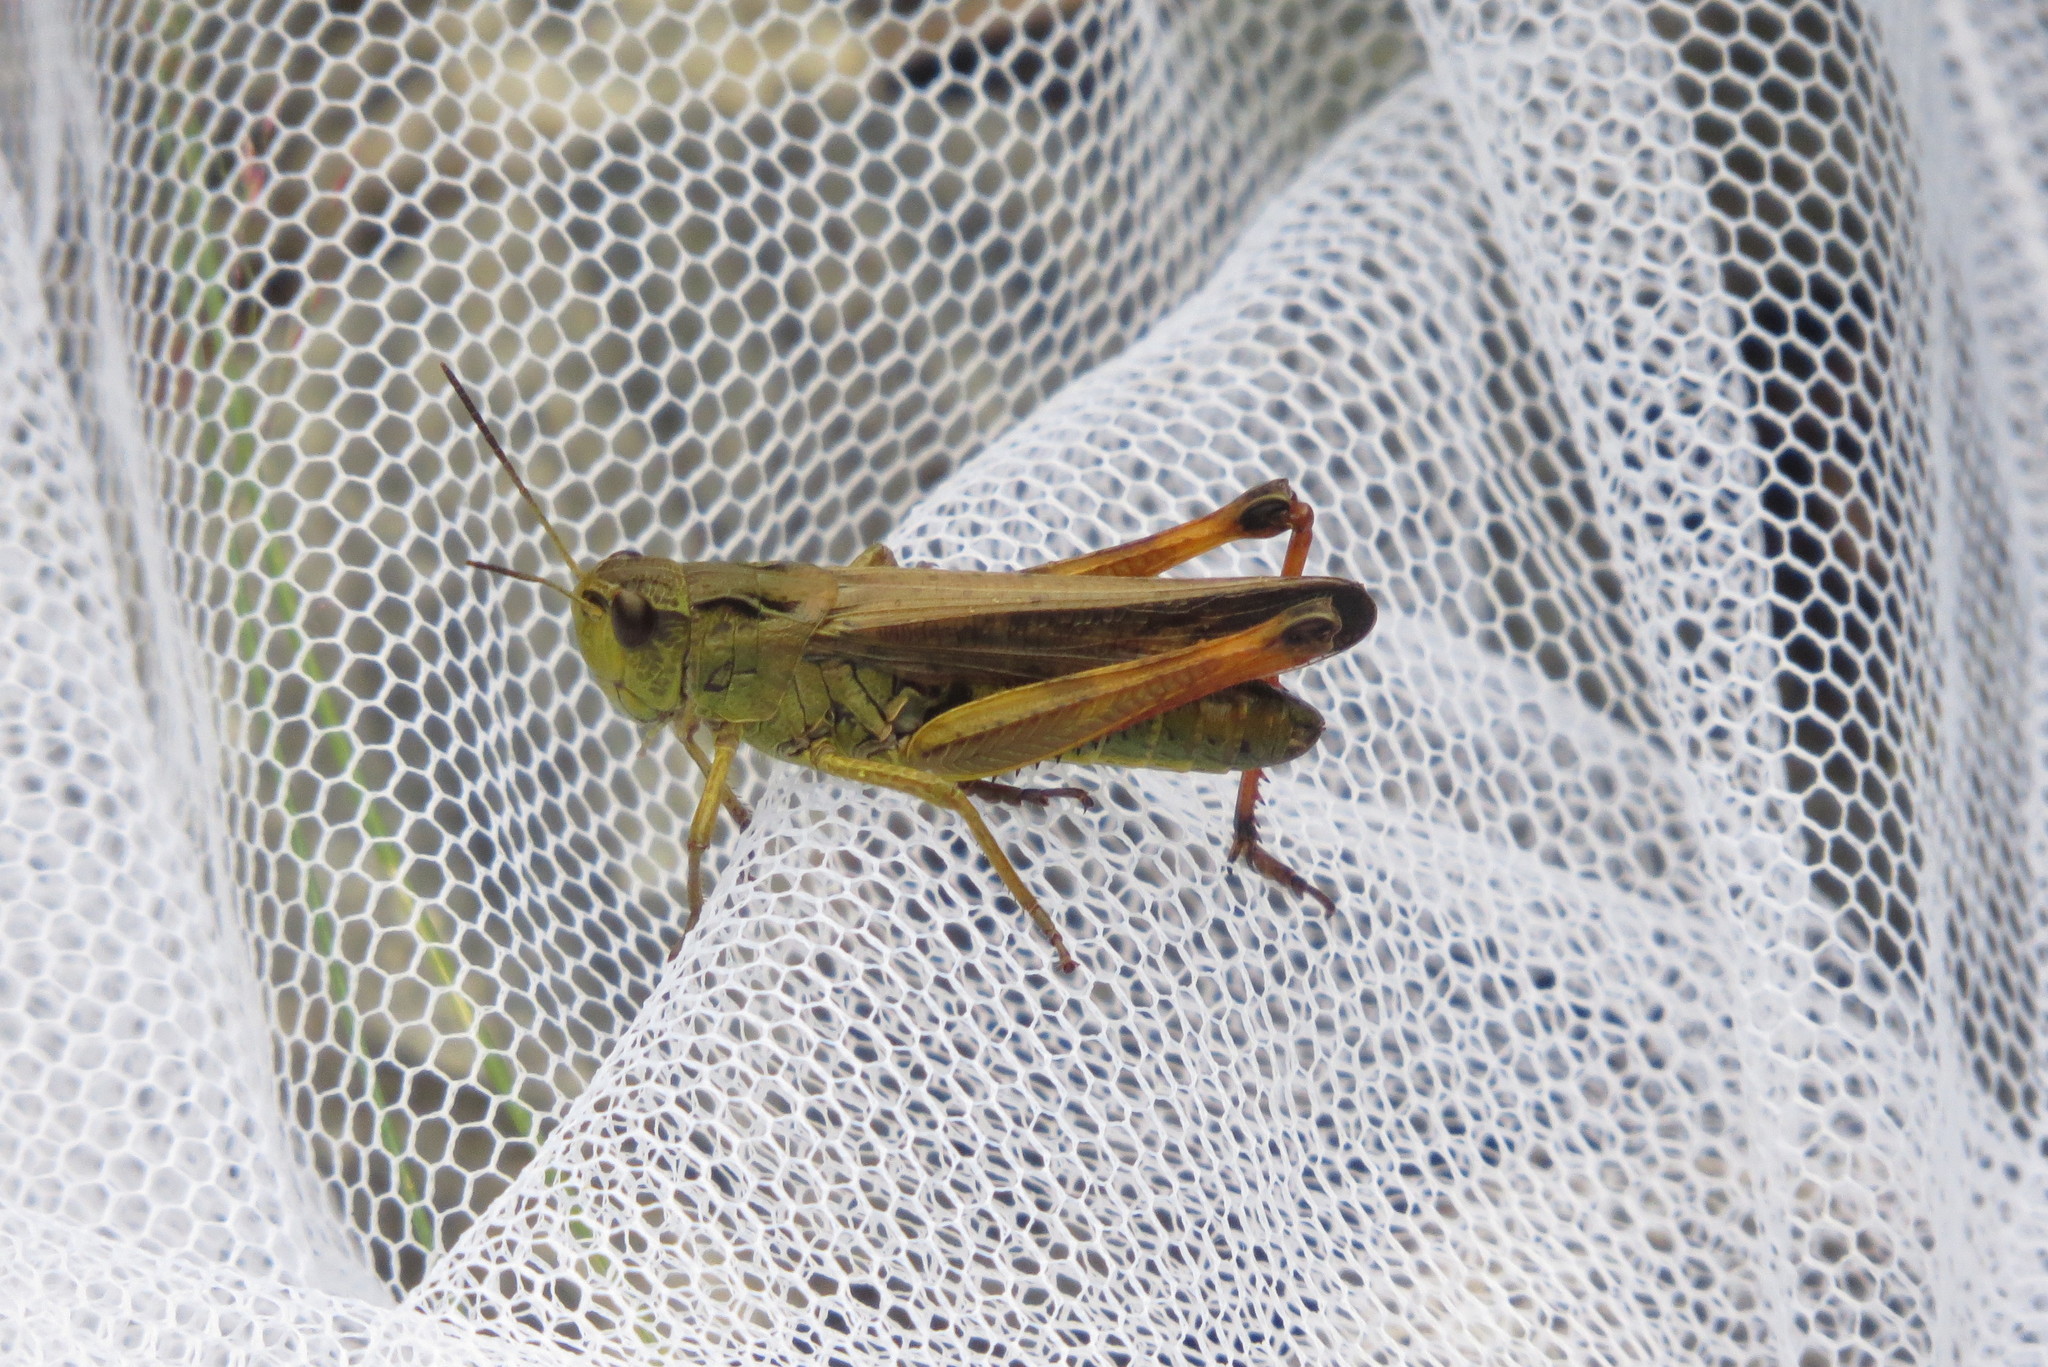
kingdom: Animalia
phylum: Arthropoda
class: Insecta
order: Orthoptera
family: Acrididae
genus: Stauroderus
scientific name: Stauroderus scalaris
